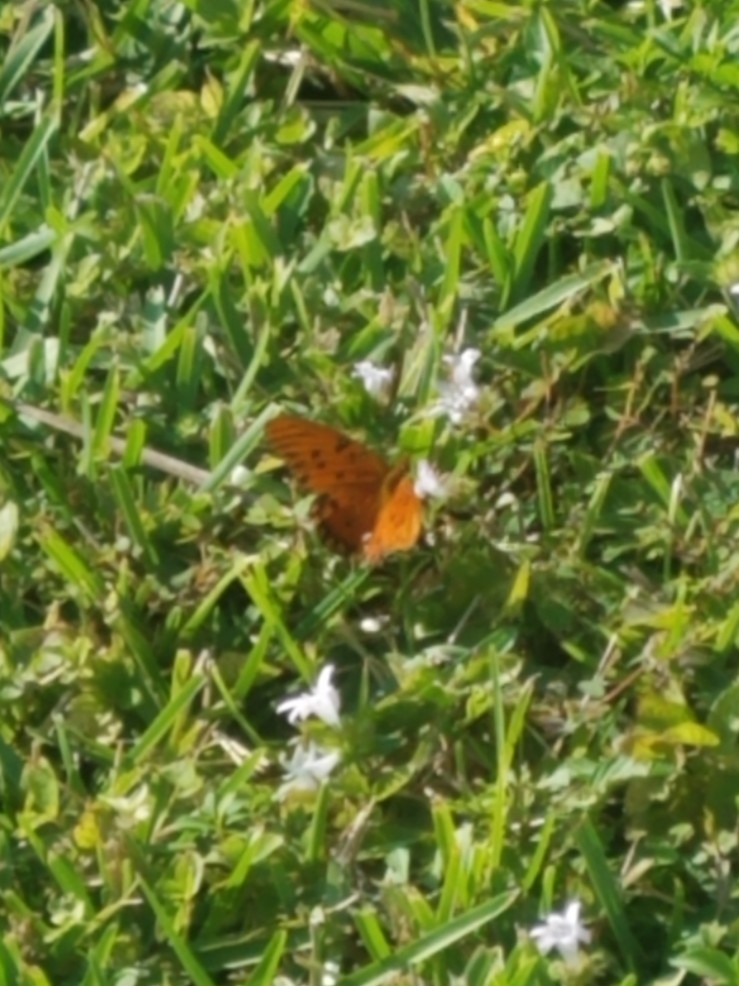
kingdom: Animalia
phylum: Arthropoda
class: Insecta
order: Lepidoptera
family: Nymphalidae
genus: Dione
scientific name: Dione vanillae
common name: Gulf fritillary
